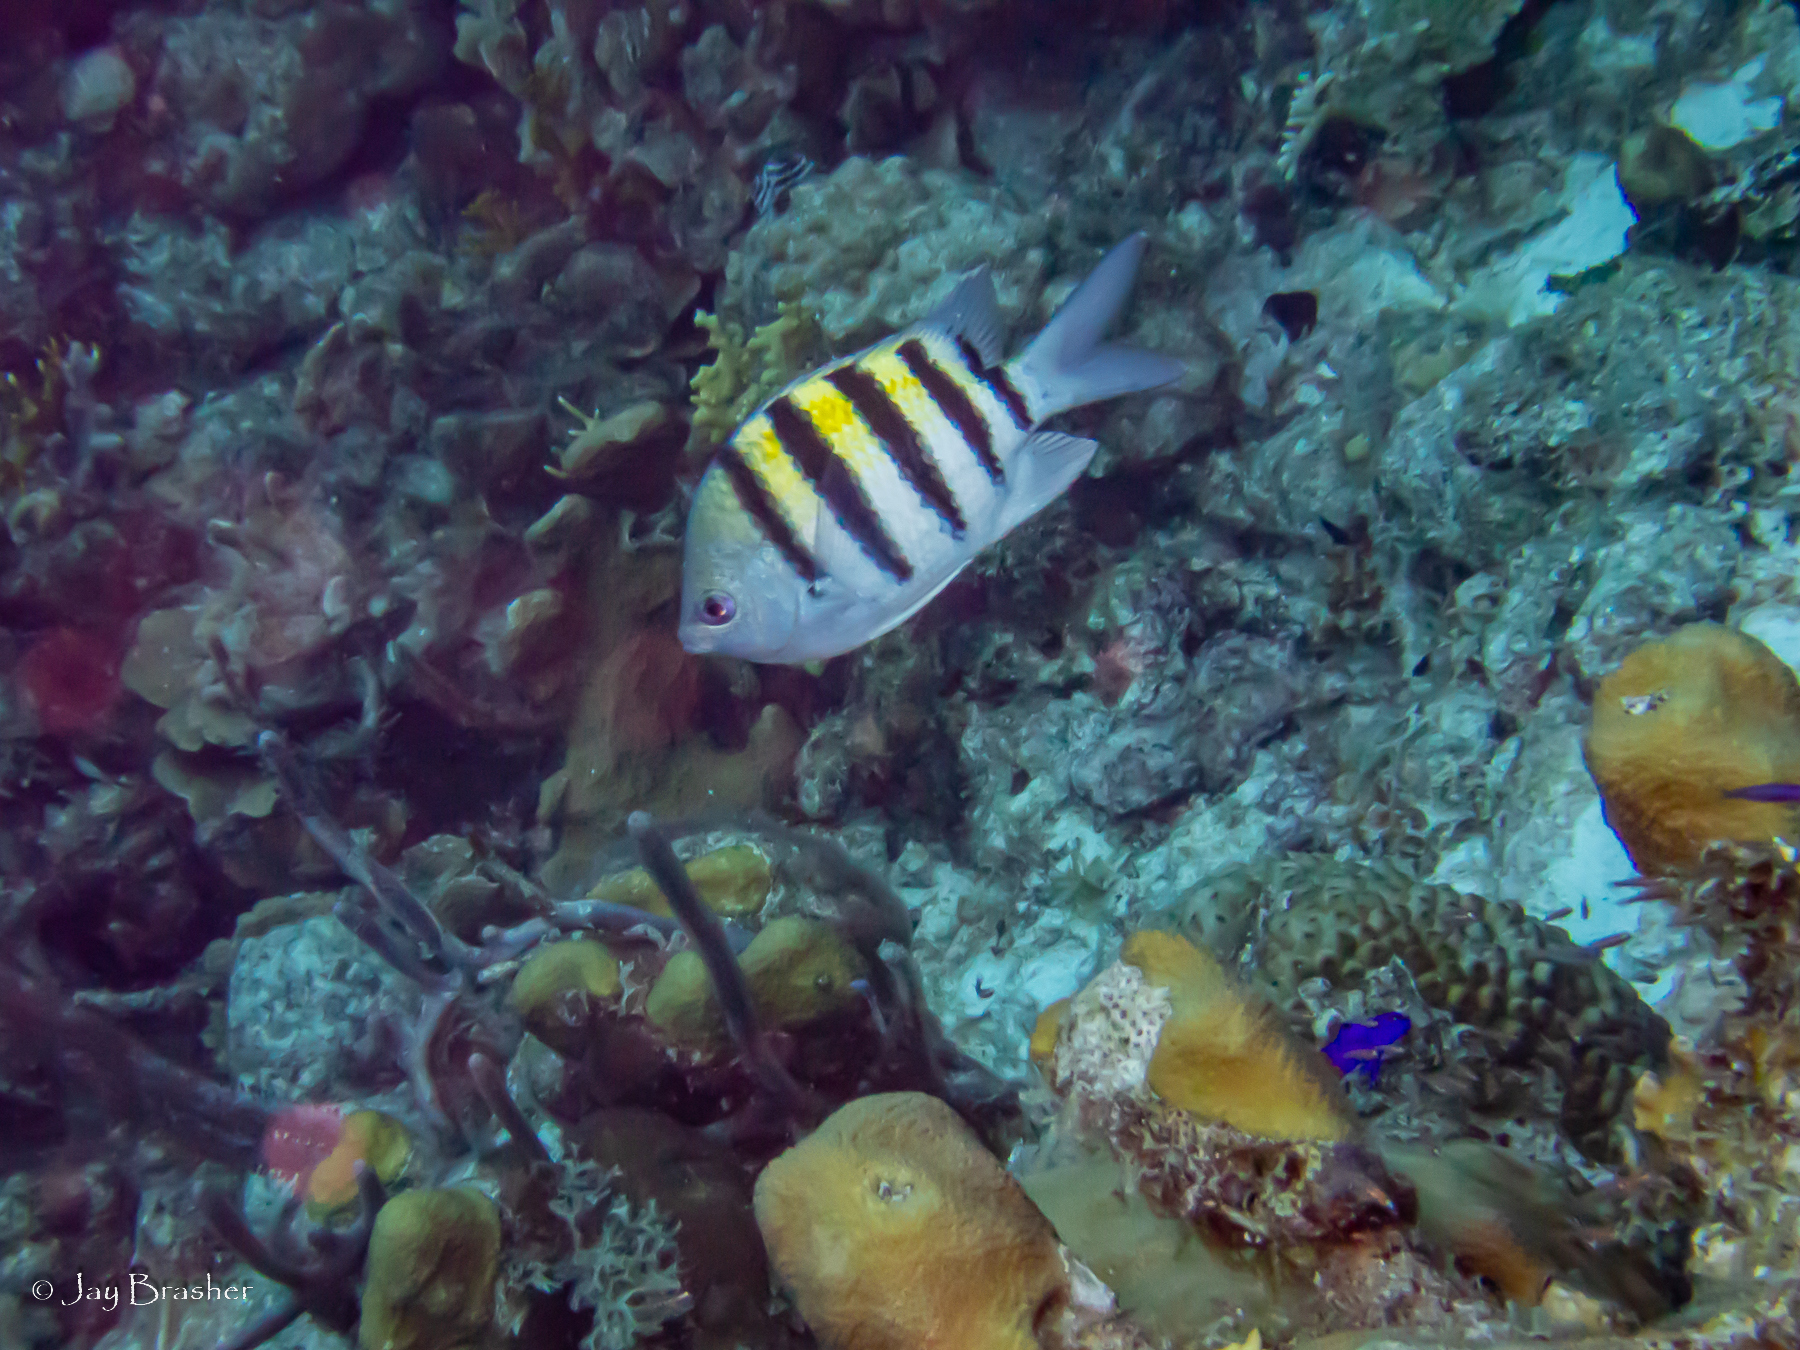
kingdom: Animalia
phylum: Chordata
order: Perciformes
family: Pomacentridae
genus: Abudefduf
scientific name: Abudefduf saxatilis
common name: Sergeant major
